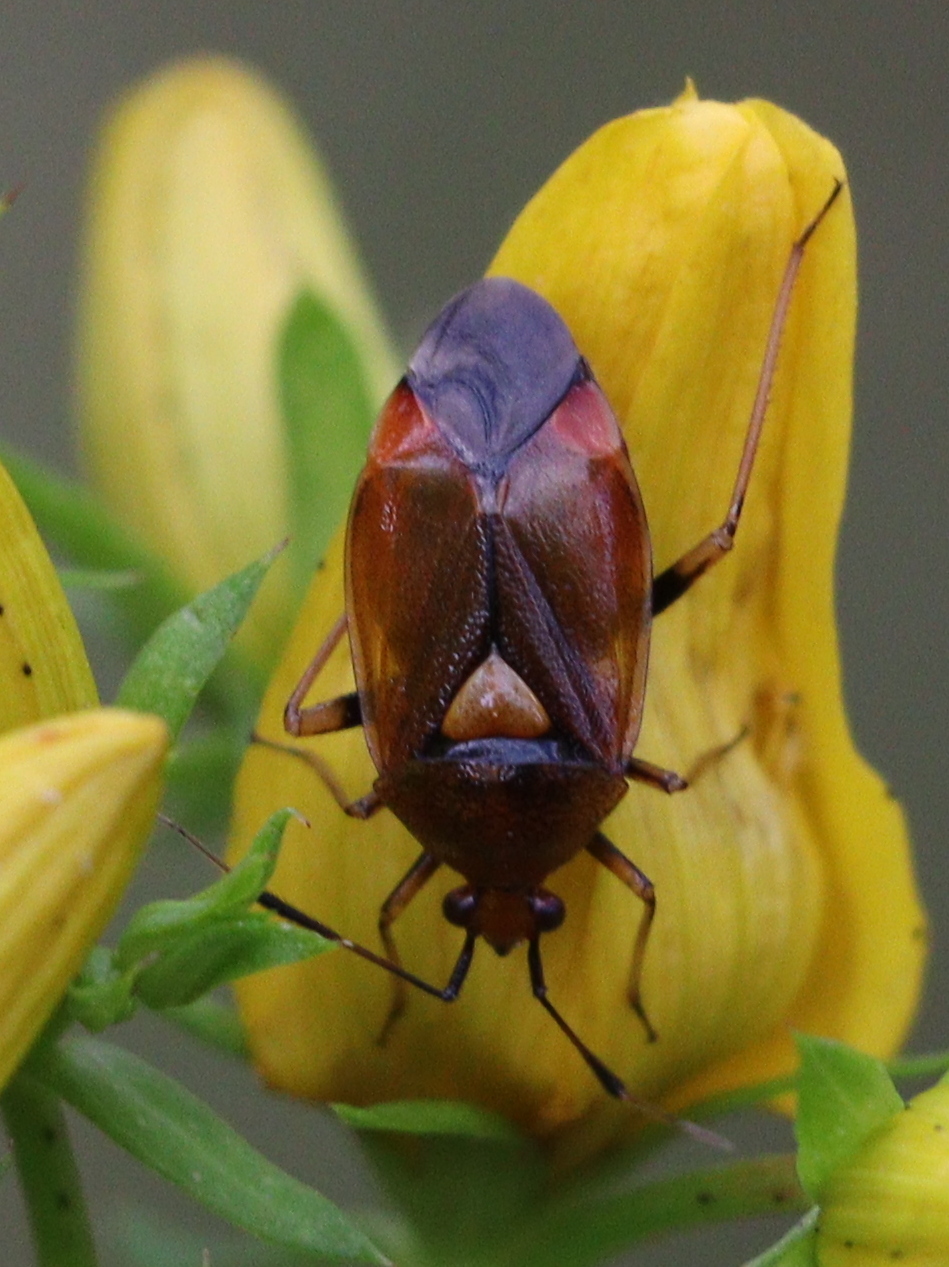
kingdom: Animalia
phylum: Arthropoda
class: Insecta
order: Hemiptera
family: Miridae
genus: Deraeocoris
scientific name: Deraeocoris ruber
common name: Plant bug
